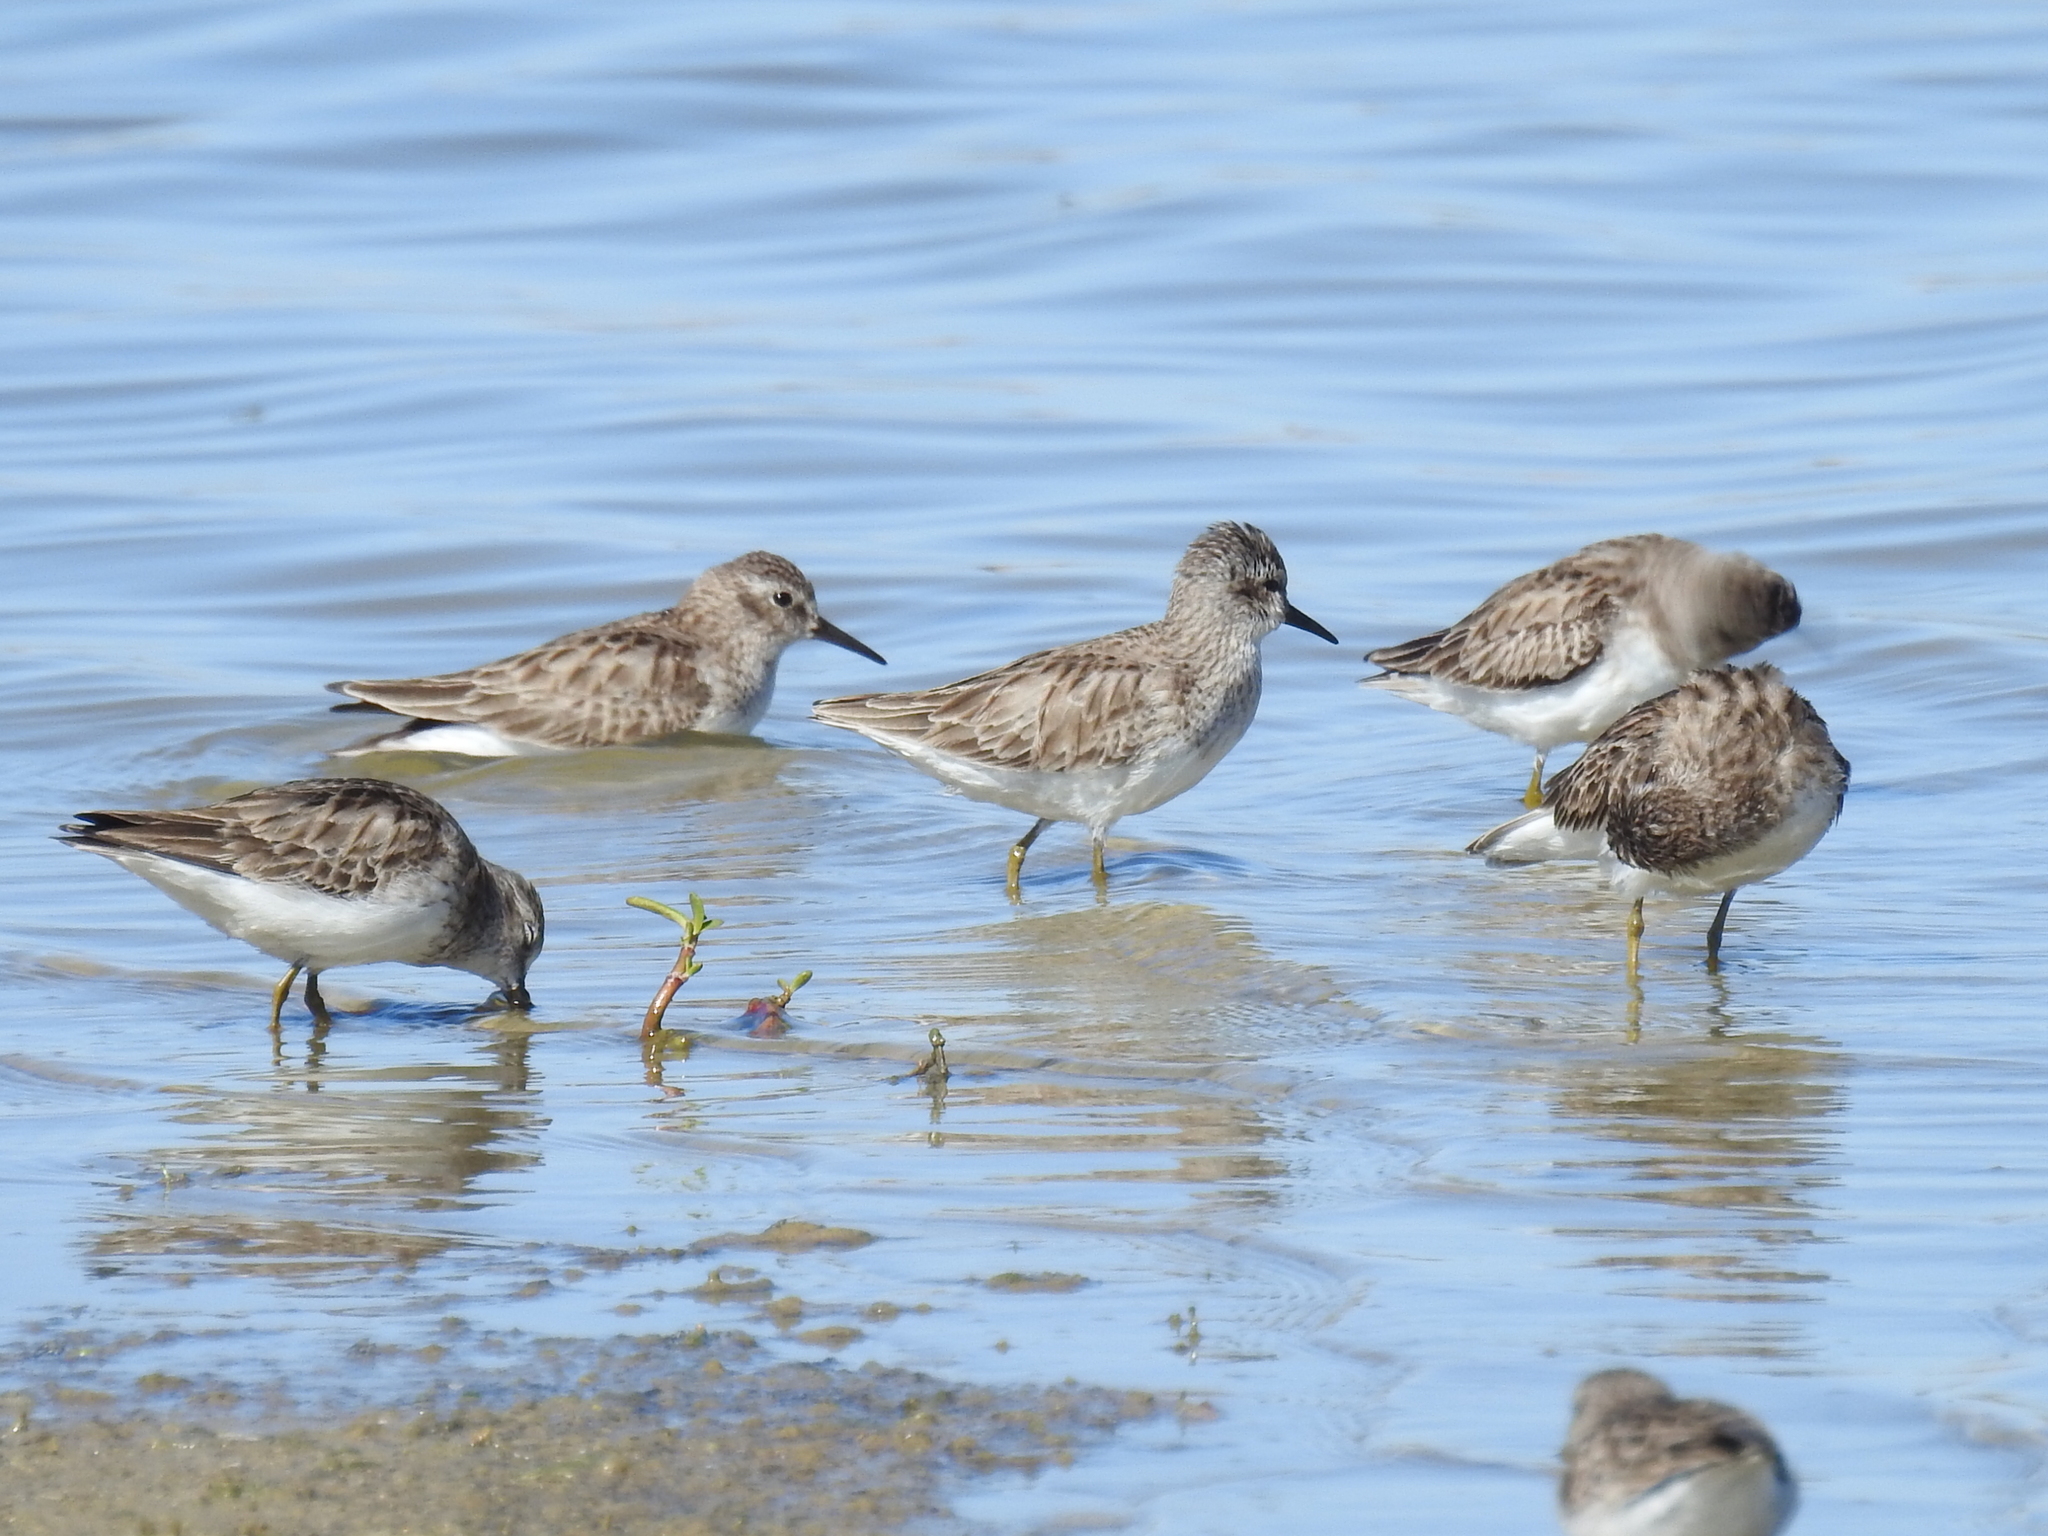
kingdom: Animalia
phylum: Chordata
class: Aves
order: Charadriiformes
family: Scolopacidae
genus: Calidris
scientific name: Calidris minutilla
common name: Least sandpiper
